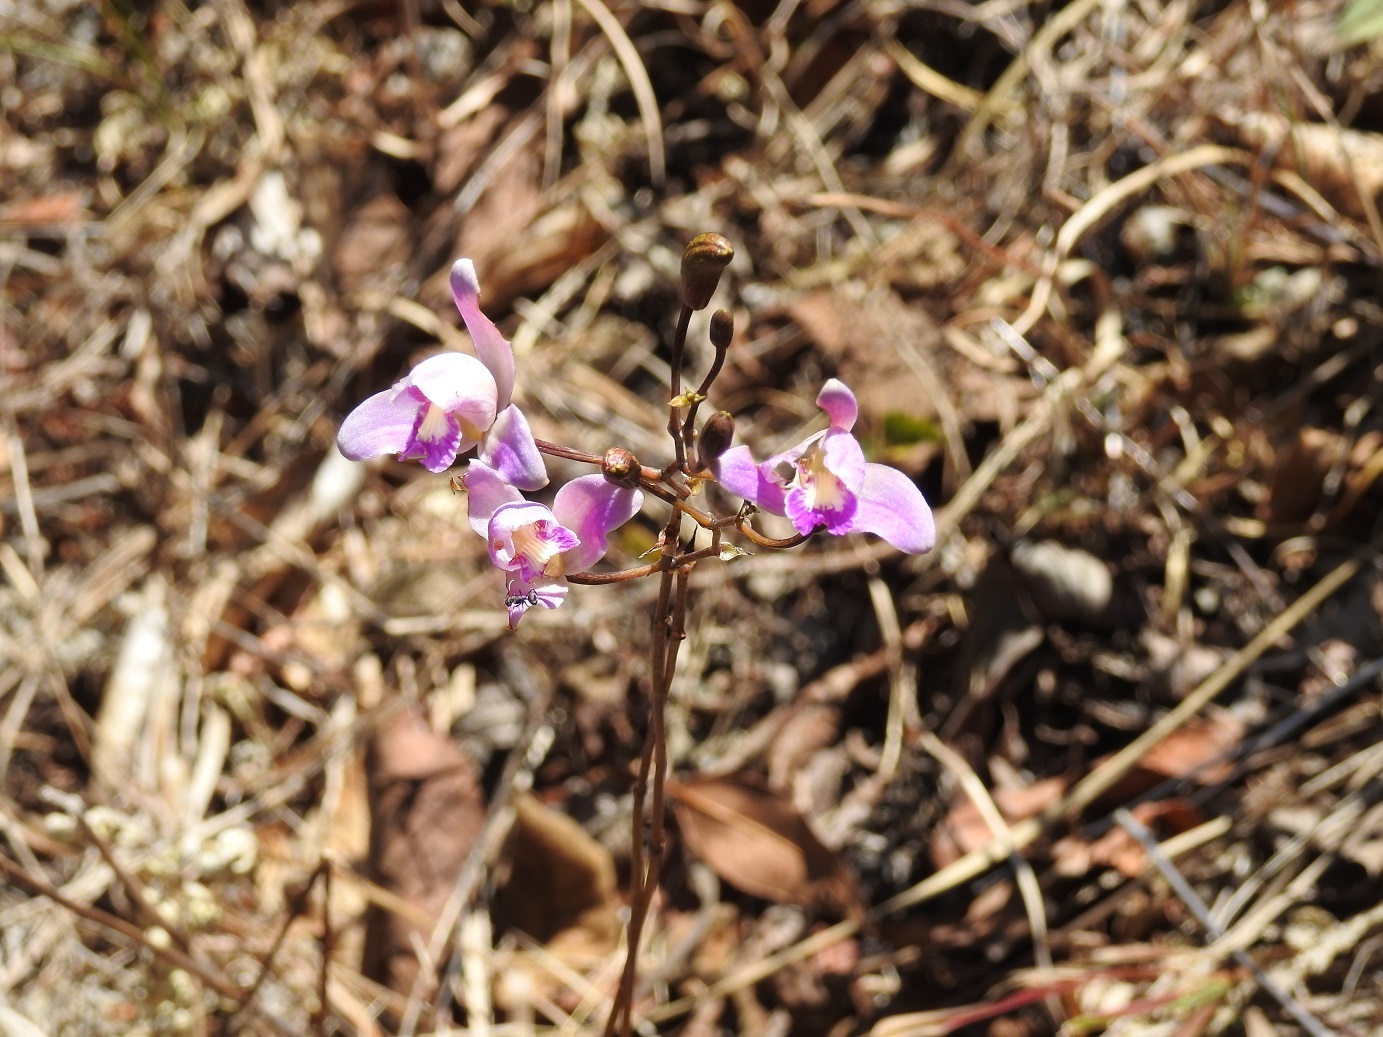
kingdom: Plantae
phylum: Tracheophyta
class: Liliopsida
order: Asparagales
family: Orchidaceae
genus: Bletia
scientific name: Bletia purpurea
